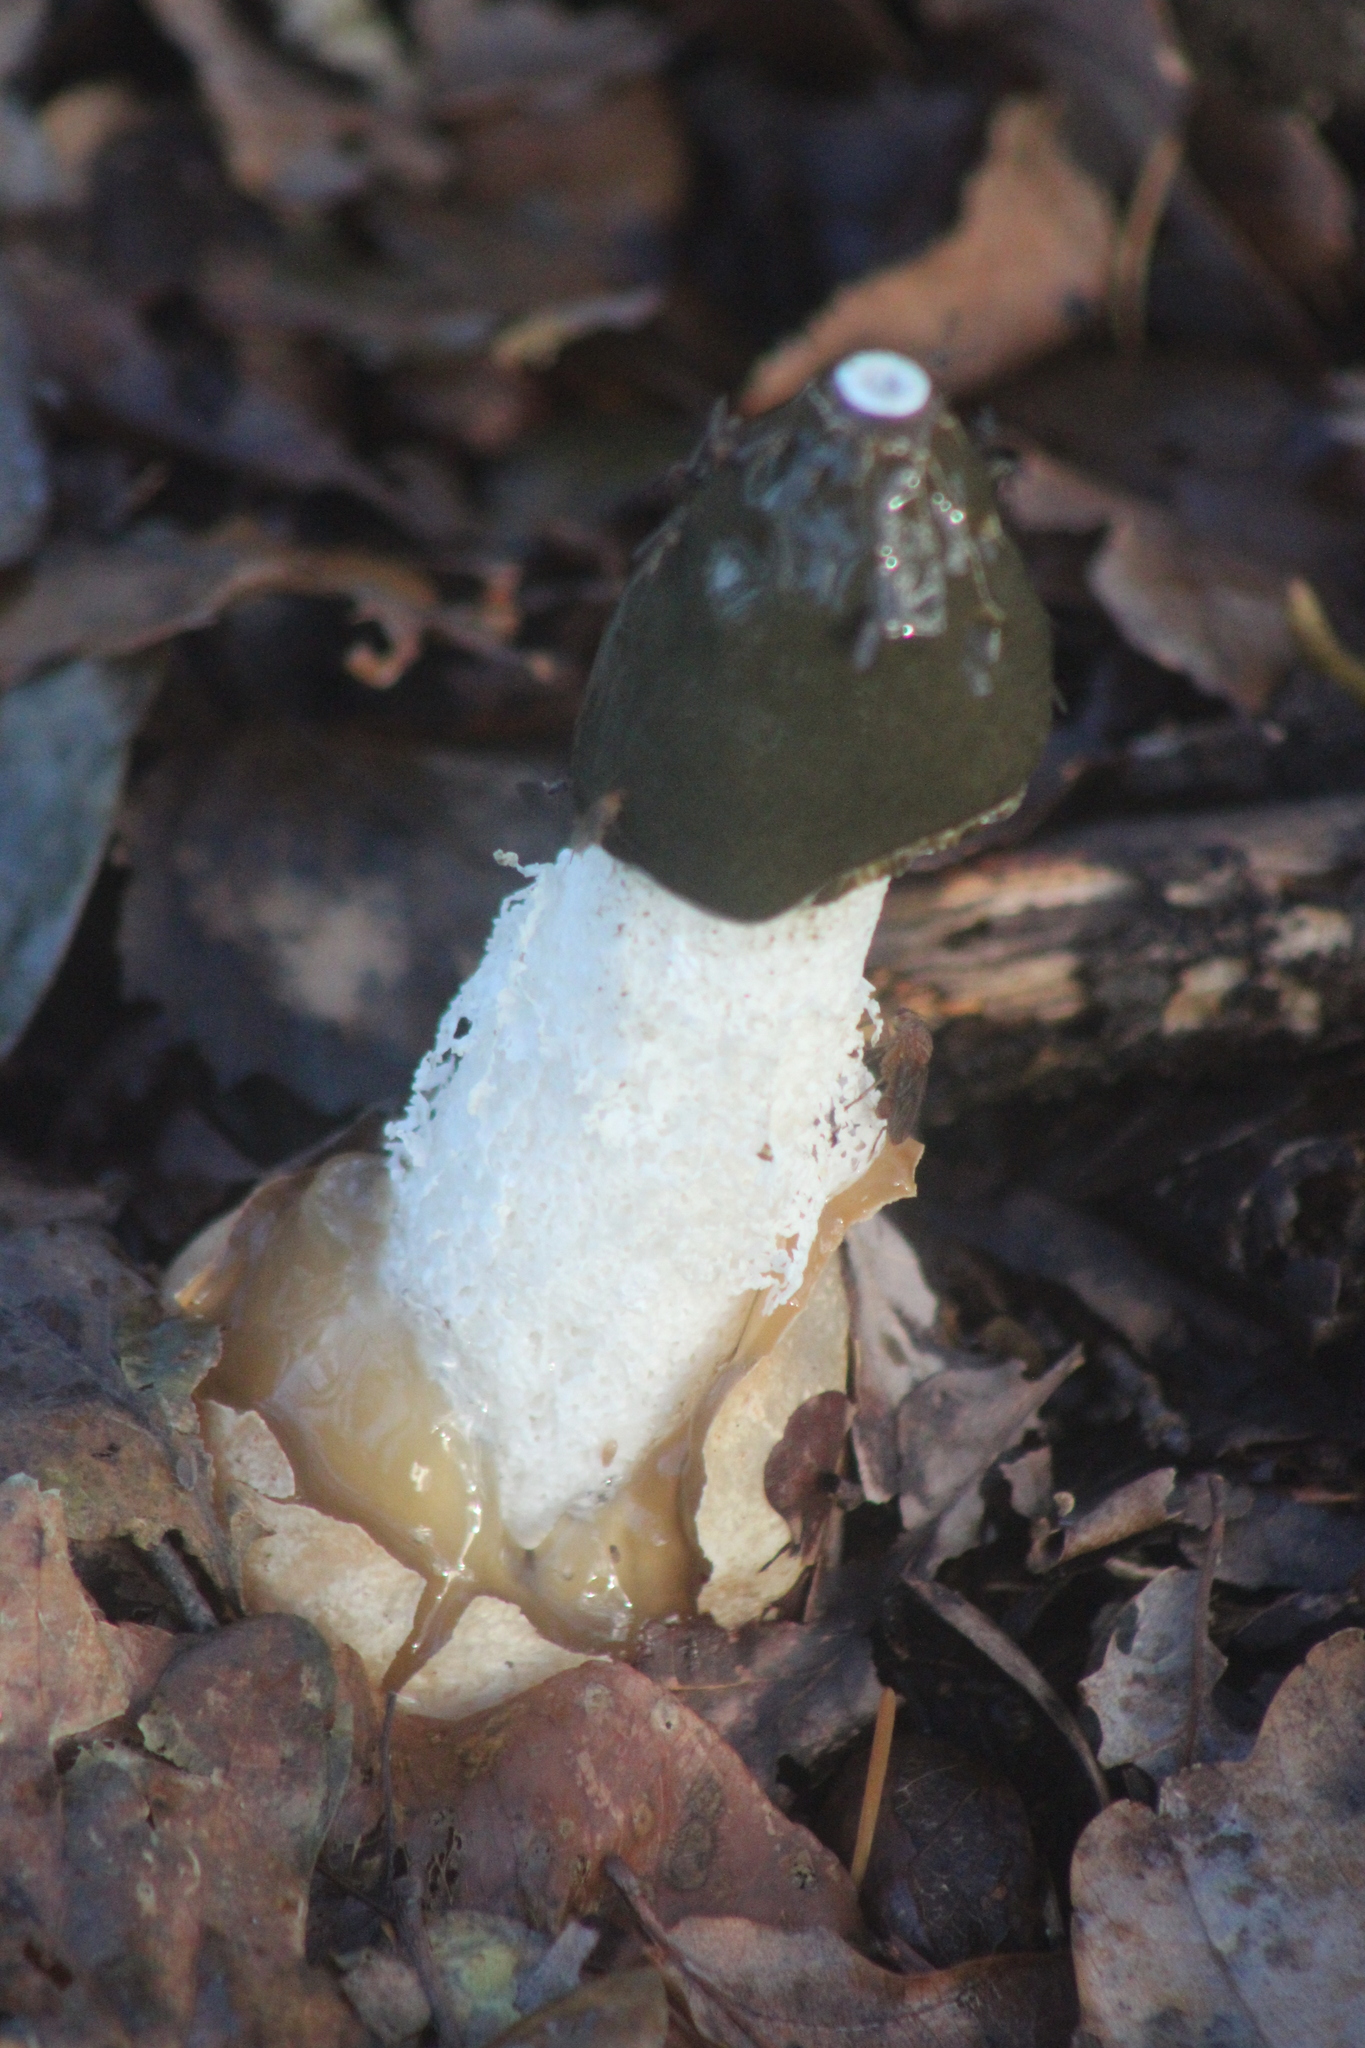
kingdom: Fungi
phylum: Basidiomycota
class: Agaricomycetes
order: Phallales
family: Phallaceae
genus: Phallus
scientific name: Phallus impudicus
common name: Common stinkhorn
